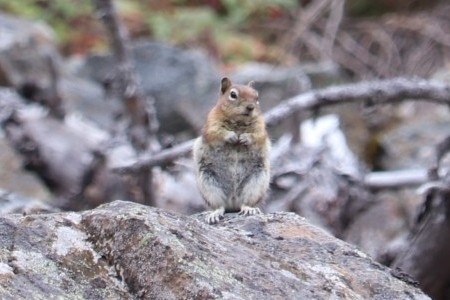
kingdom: Animalia
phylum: Chordata
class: Mammalia
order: Rodentia
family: Sciuridae
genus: Callospermophilus
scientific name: Callospermophilus lateralis
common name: Golden-mantled ground squirrel
